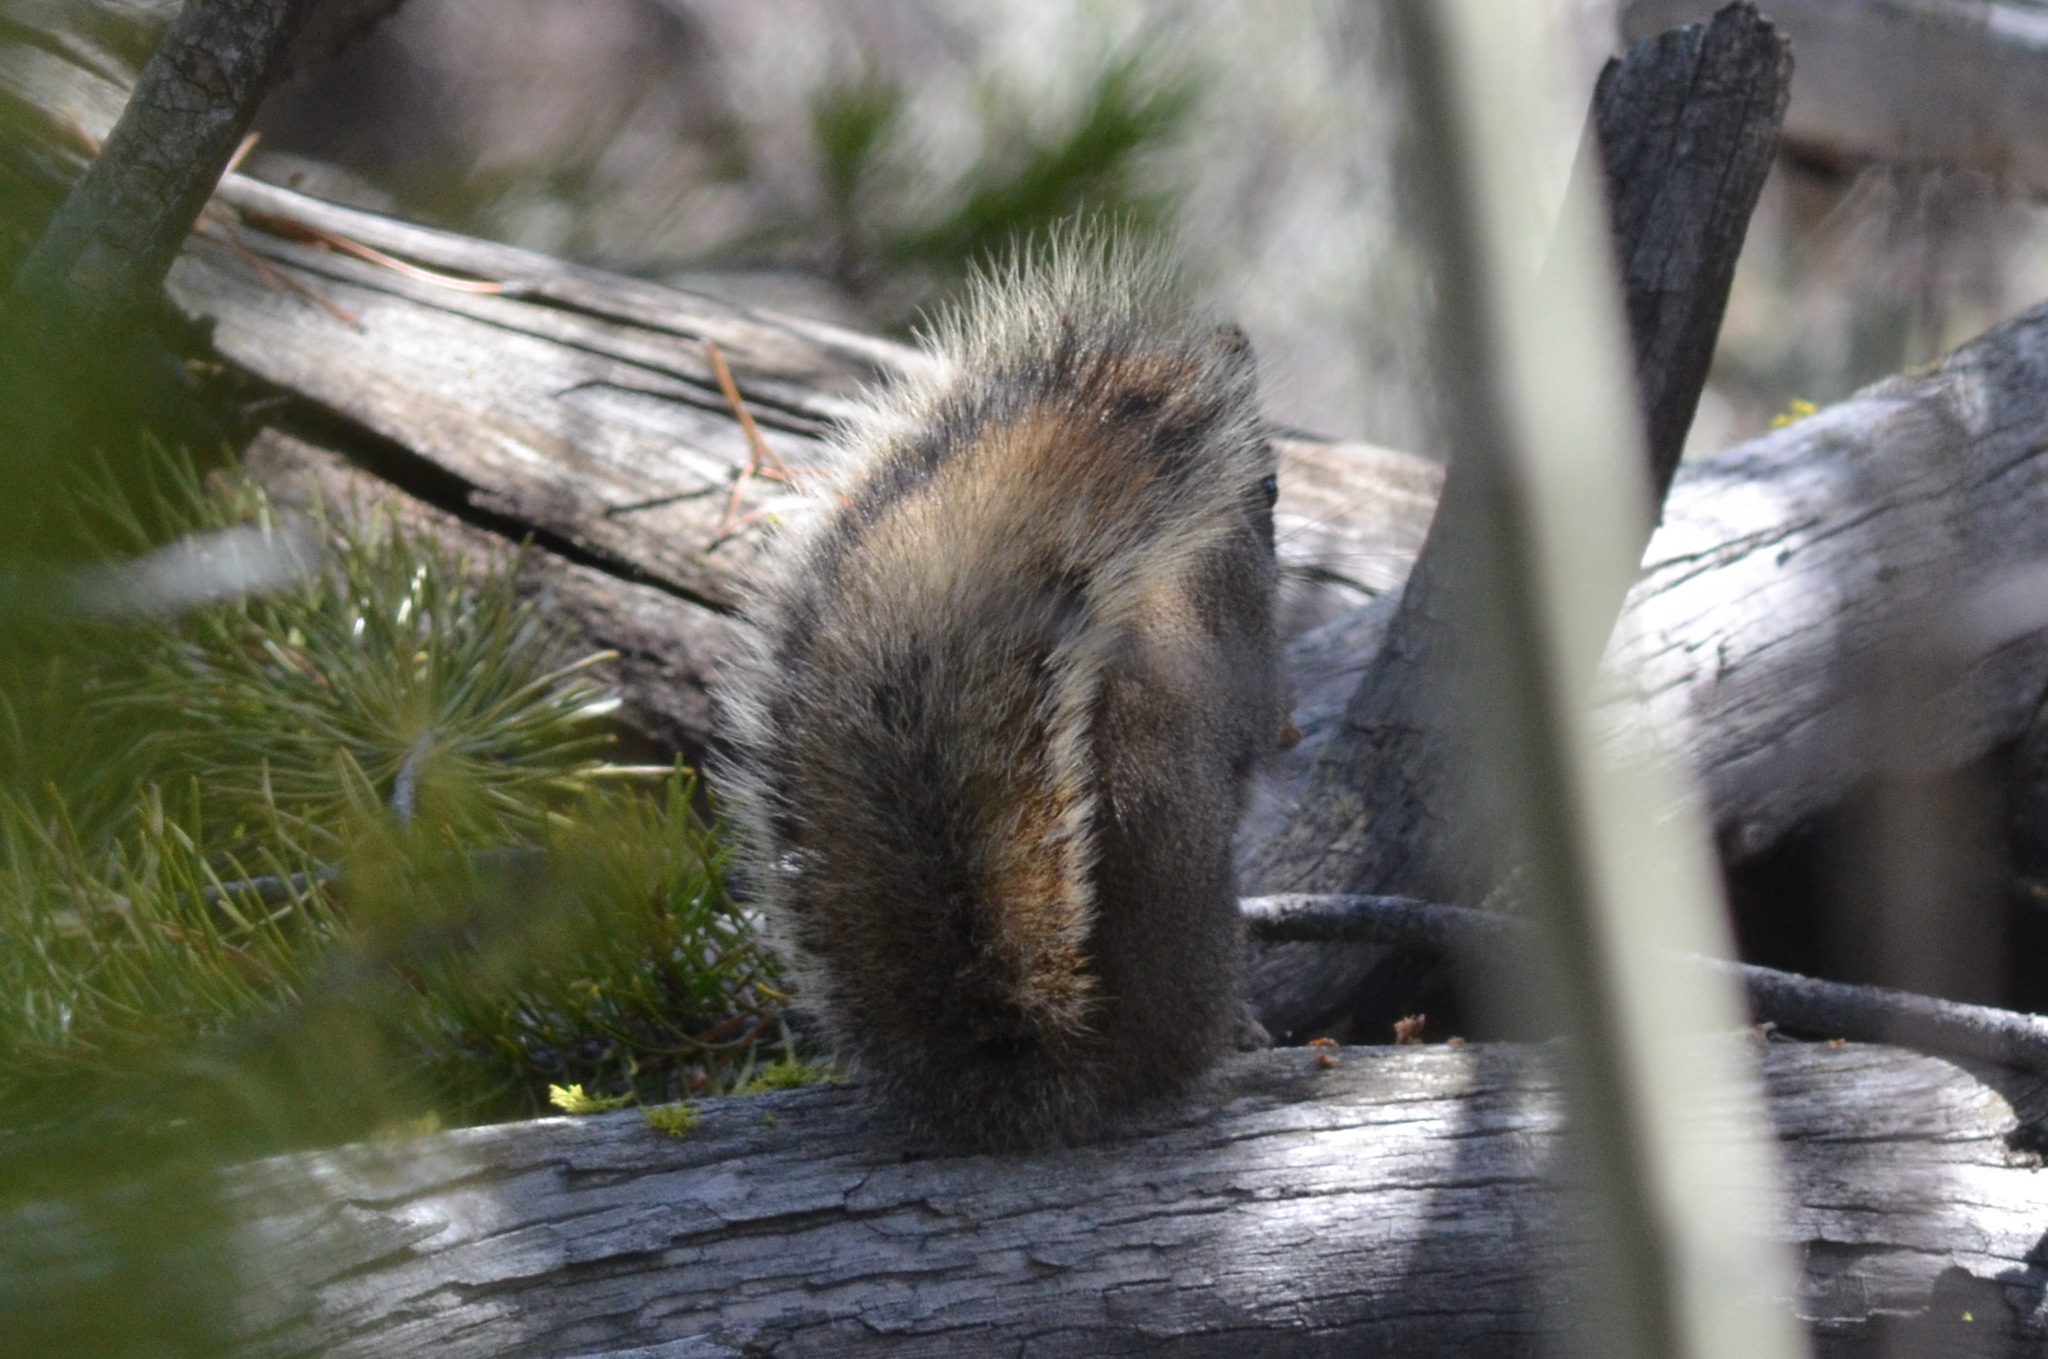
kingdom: Animalia
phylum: Chordata
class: Mammalia
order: Rodentia
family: Sciuridae
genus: Tamiasciurus
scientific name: Tamiasciurus hudsonicus
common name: Red squirrel
